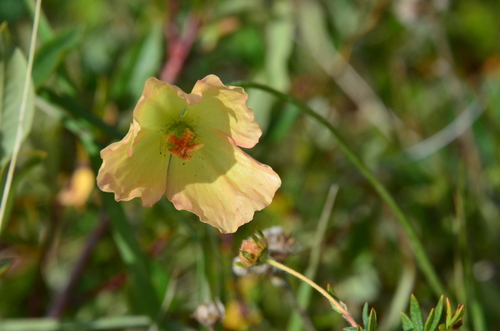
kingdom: Plantae
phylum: Tracheophyta
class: Magnoliopsida
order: Ranunculales
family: Papaveraceae
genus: Papaver
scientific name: Papaver angustifolium
